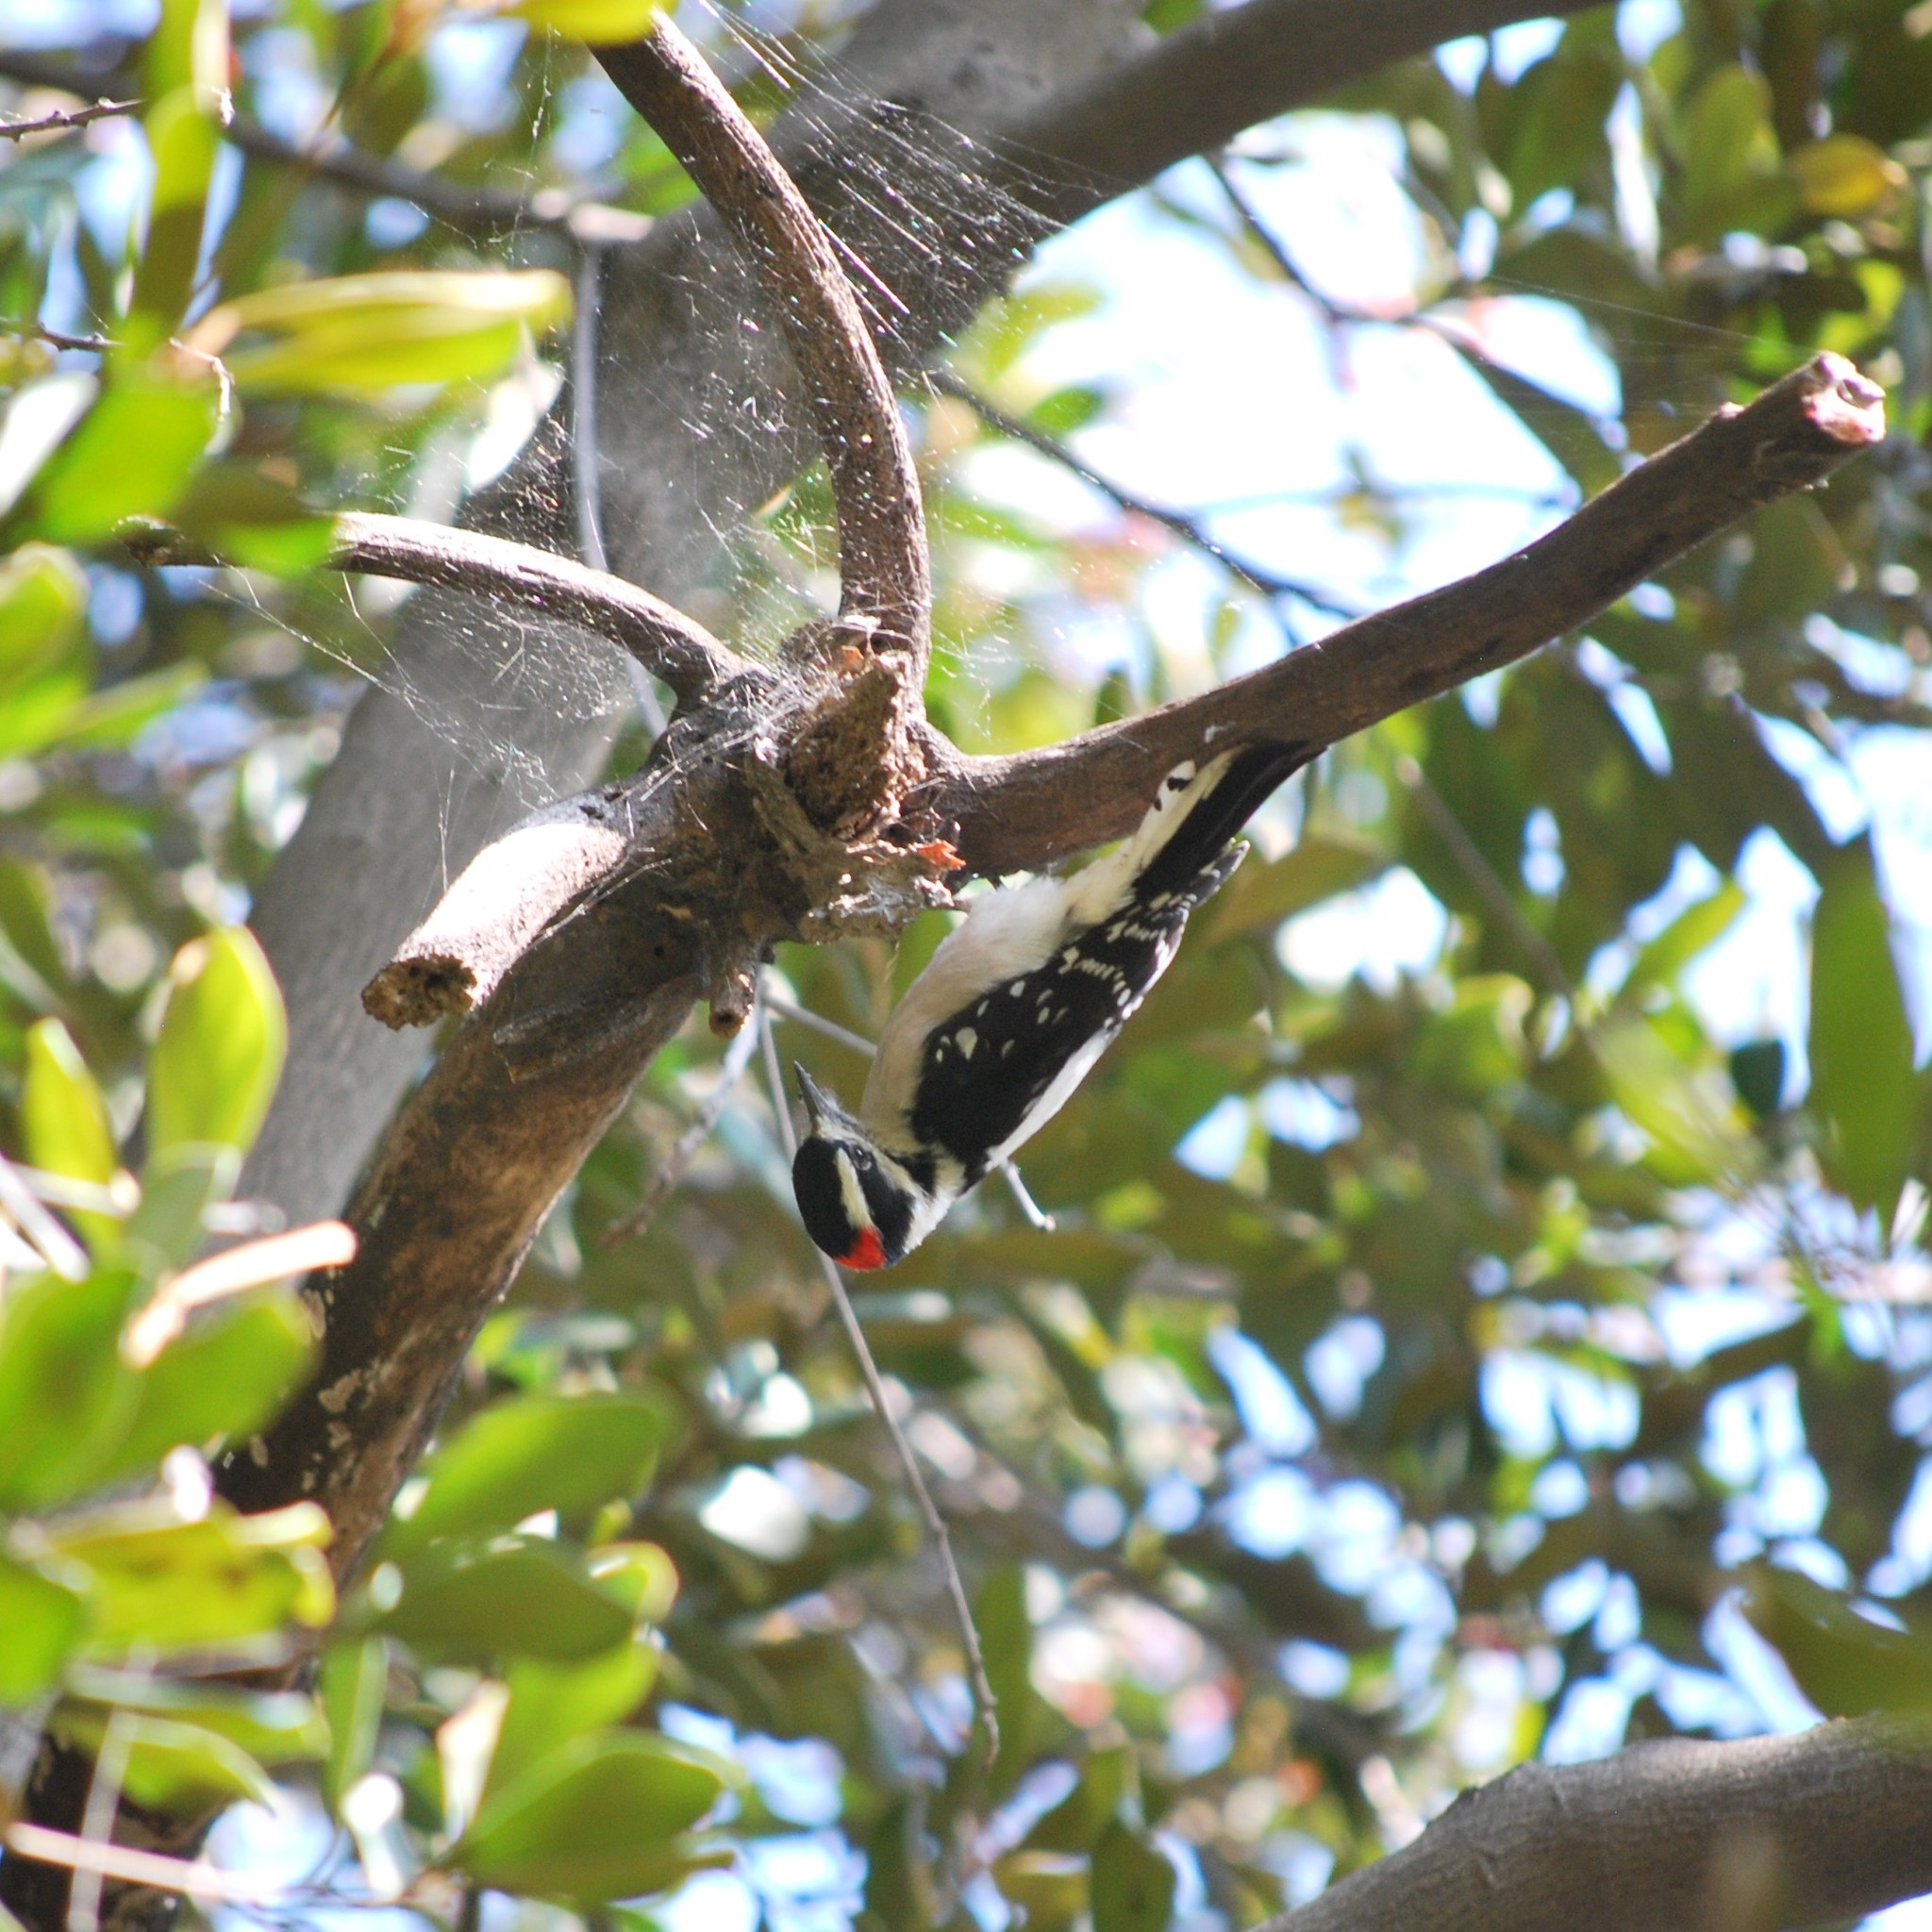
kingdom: Animalia
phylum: Chordata
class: Aves
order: Piciformes
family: Picidae
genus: Dryobates
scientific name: Dryobates pubescens
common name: Downy woodpecker
